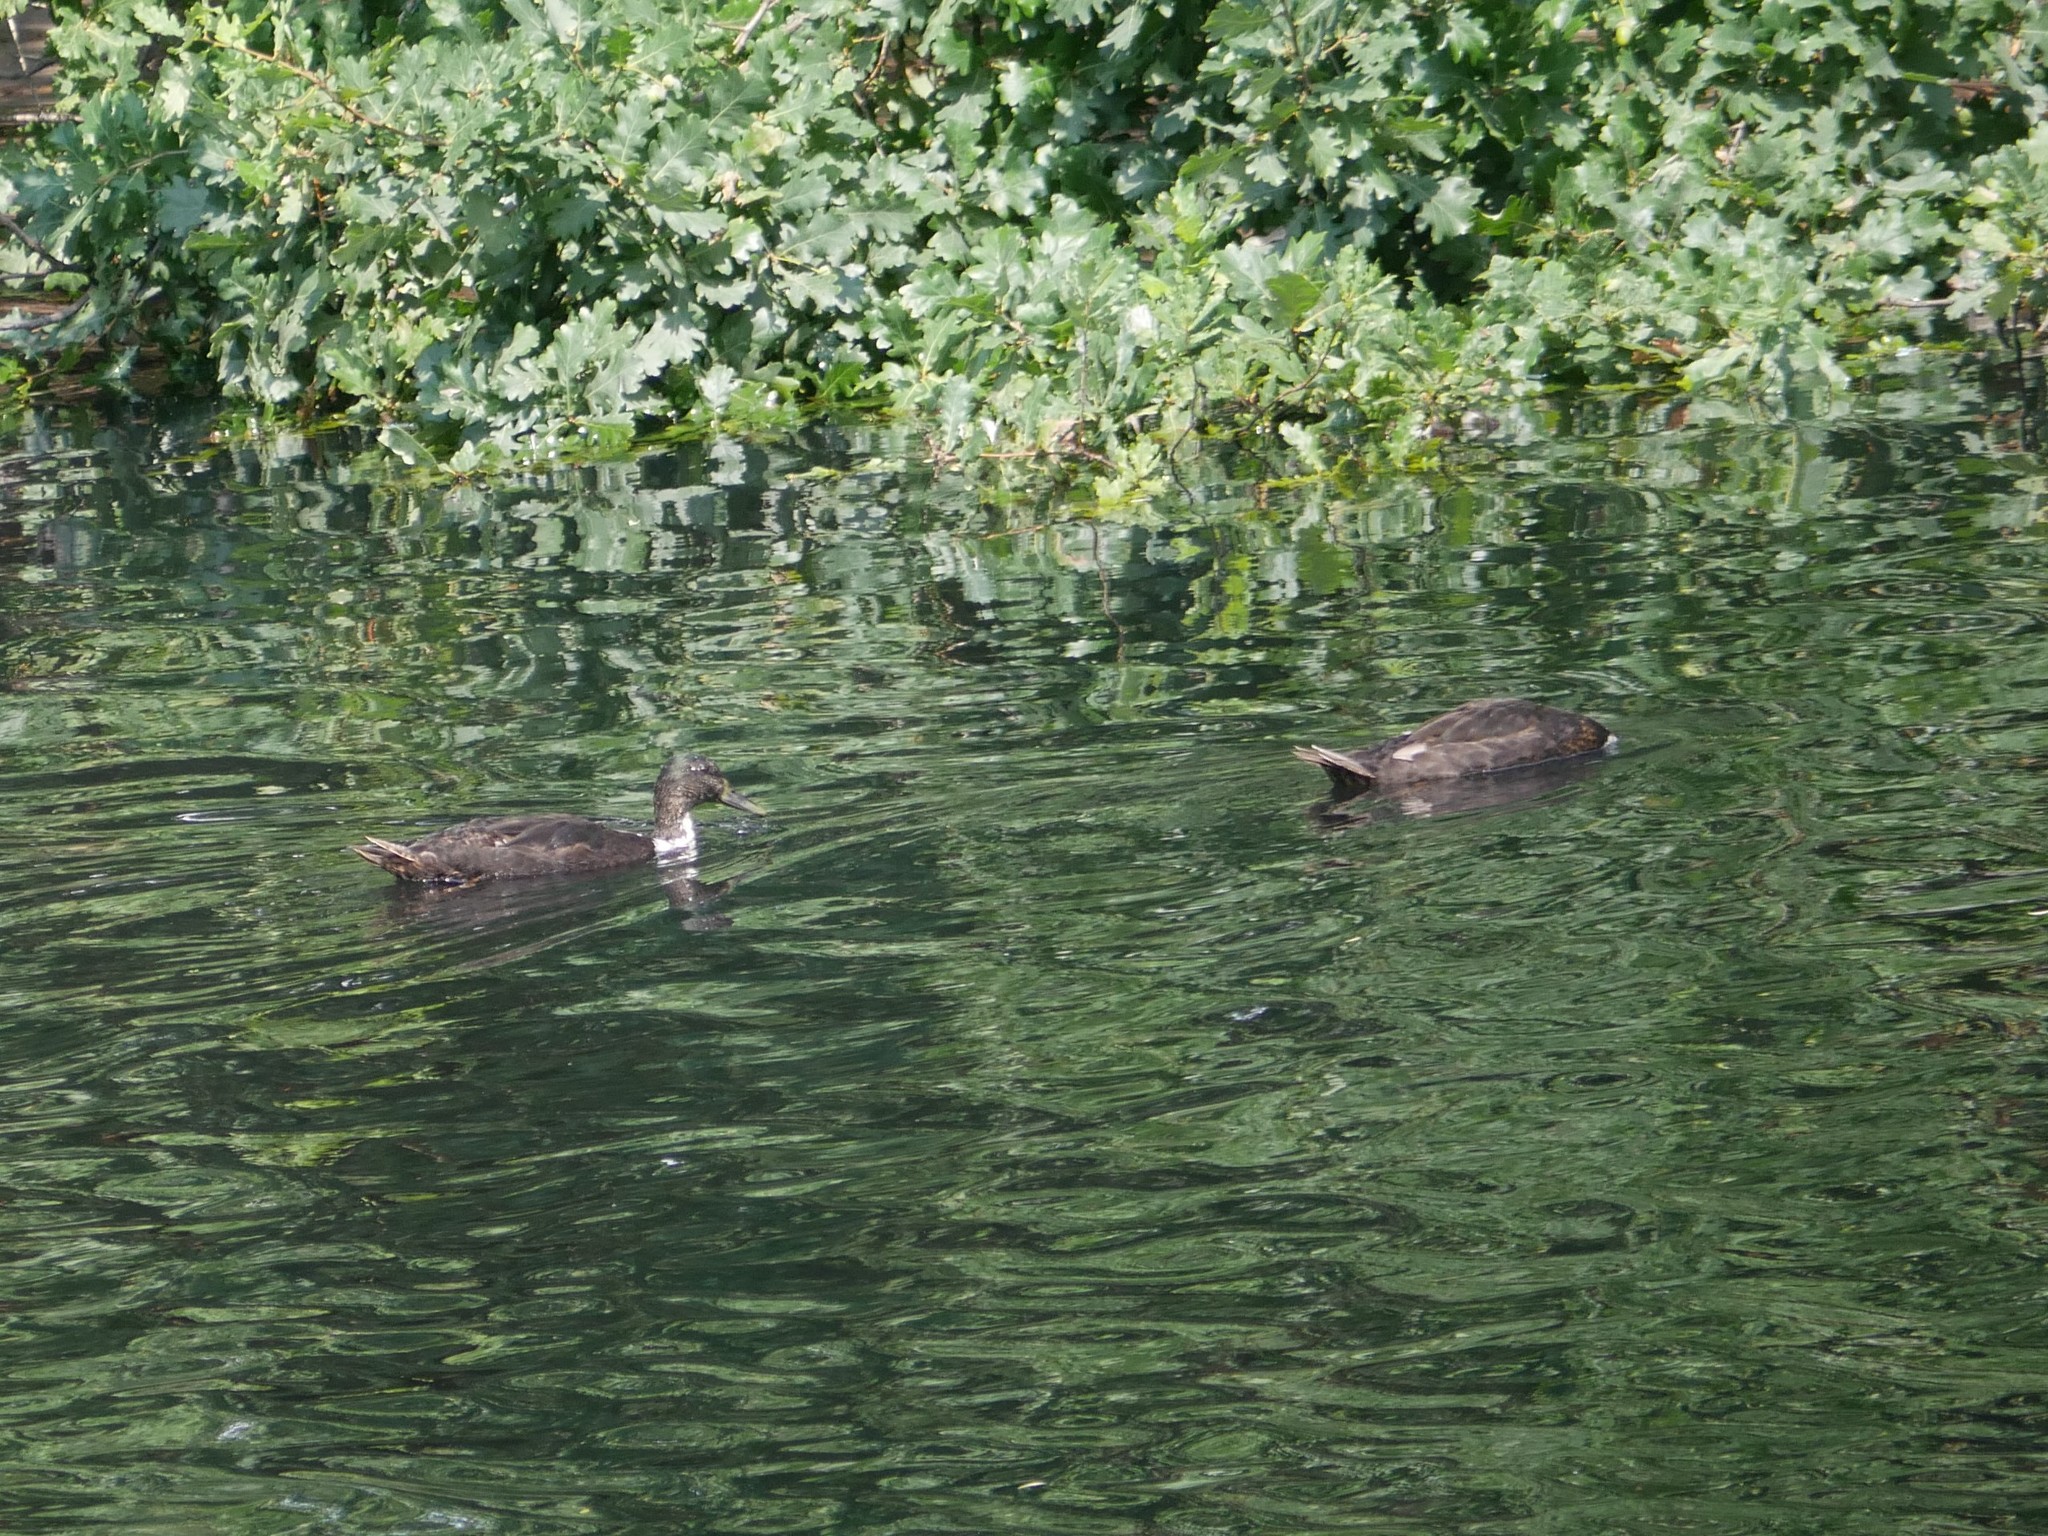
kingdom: Animalia
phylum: Chordata
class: Aves
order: Anseriformes
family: Anatidae
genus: Anas
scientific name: Anas platyrhynchos
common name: Mallard
